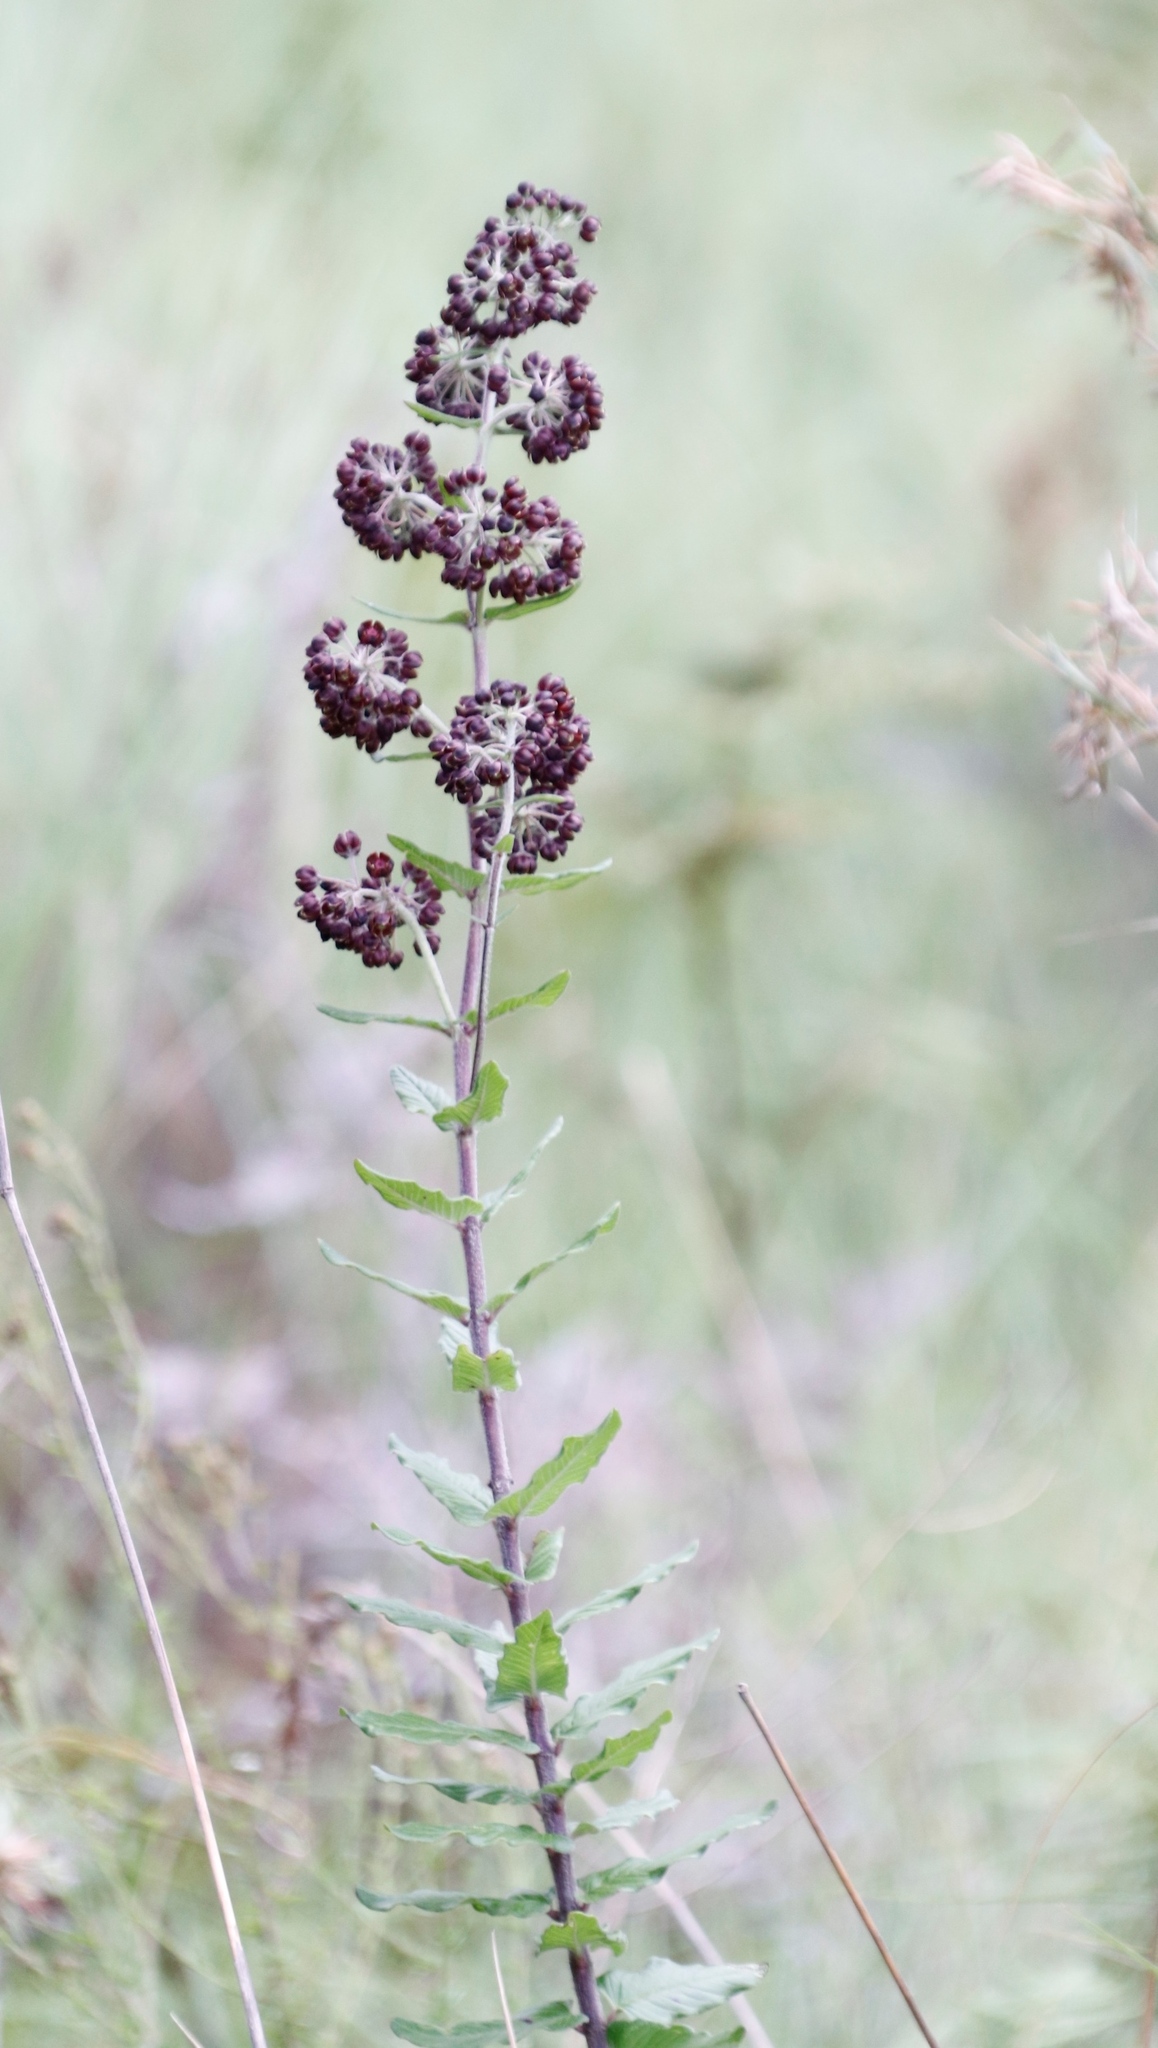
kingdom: Plantae
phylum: Tracheophyta
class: Magnoliopsida
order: Gentianales
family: Apocynaceae
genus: Schizoglossum
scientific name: Schizoglossum atropurpureum
